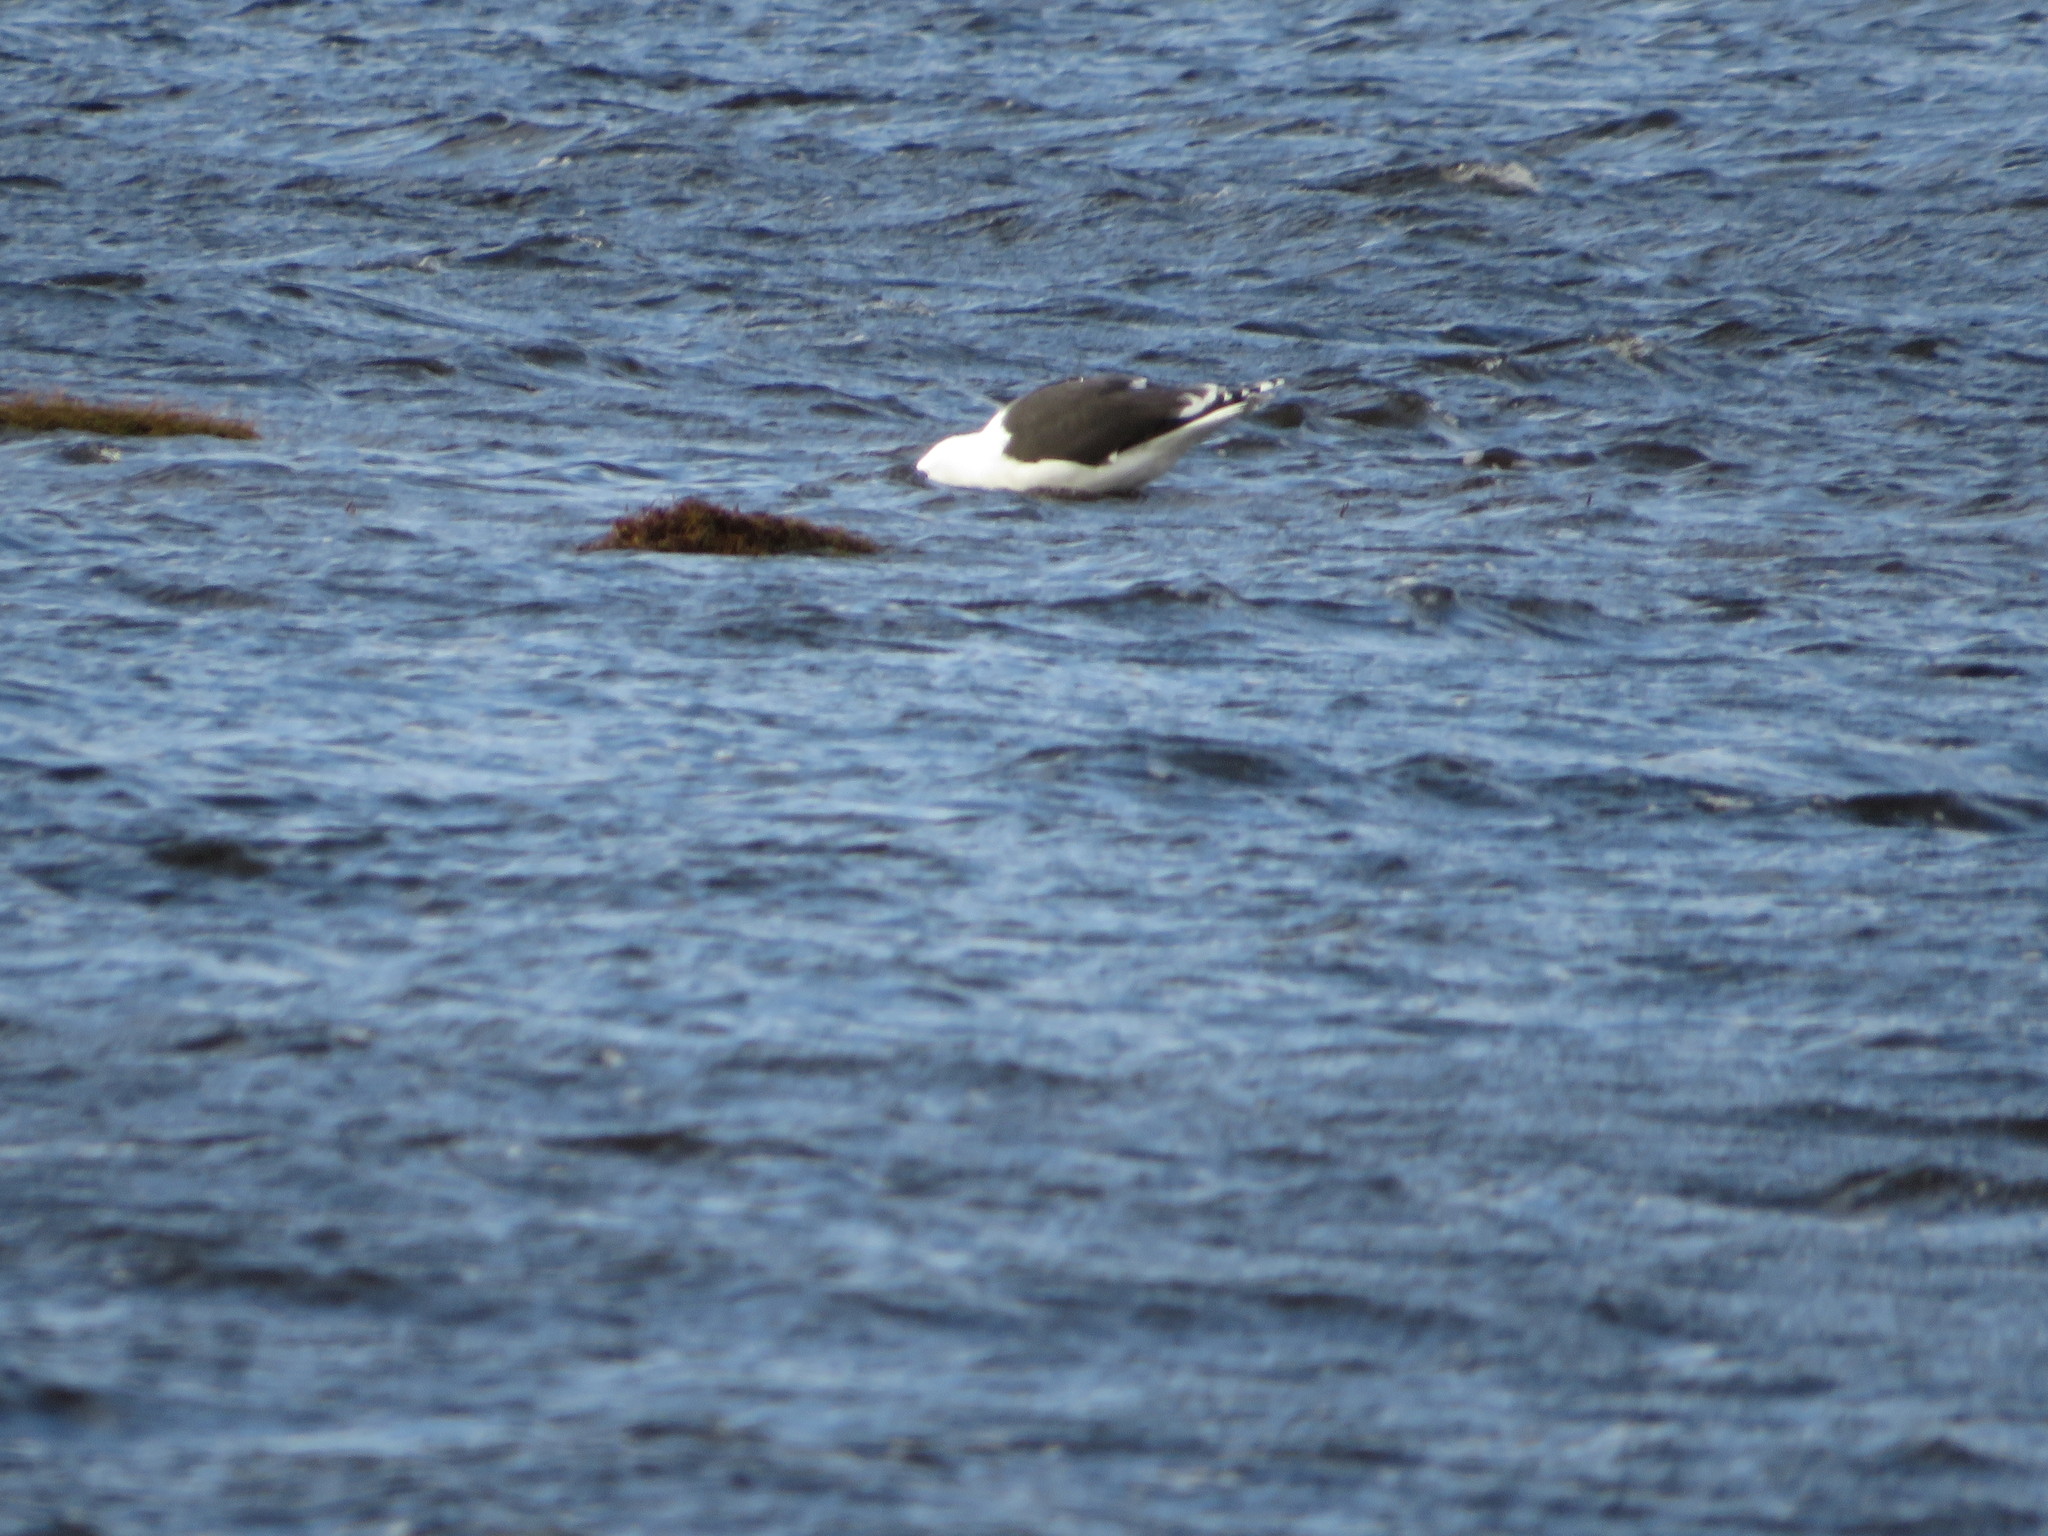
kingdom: Animalia
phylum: Chordata
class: Aves
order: Charadriiformes
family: Laridae
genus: Larus
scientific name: Larus marinus
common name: Great black-backed gull
